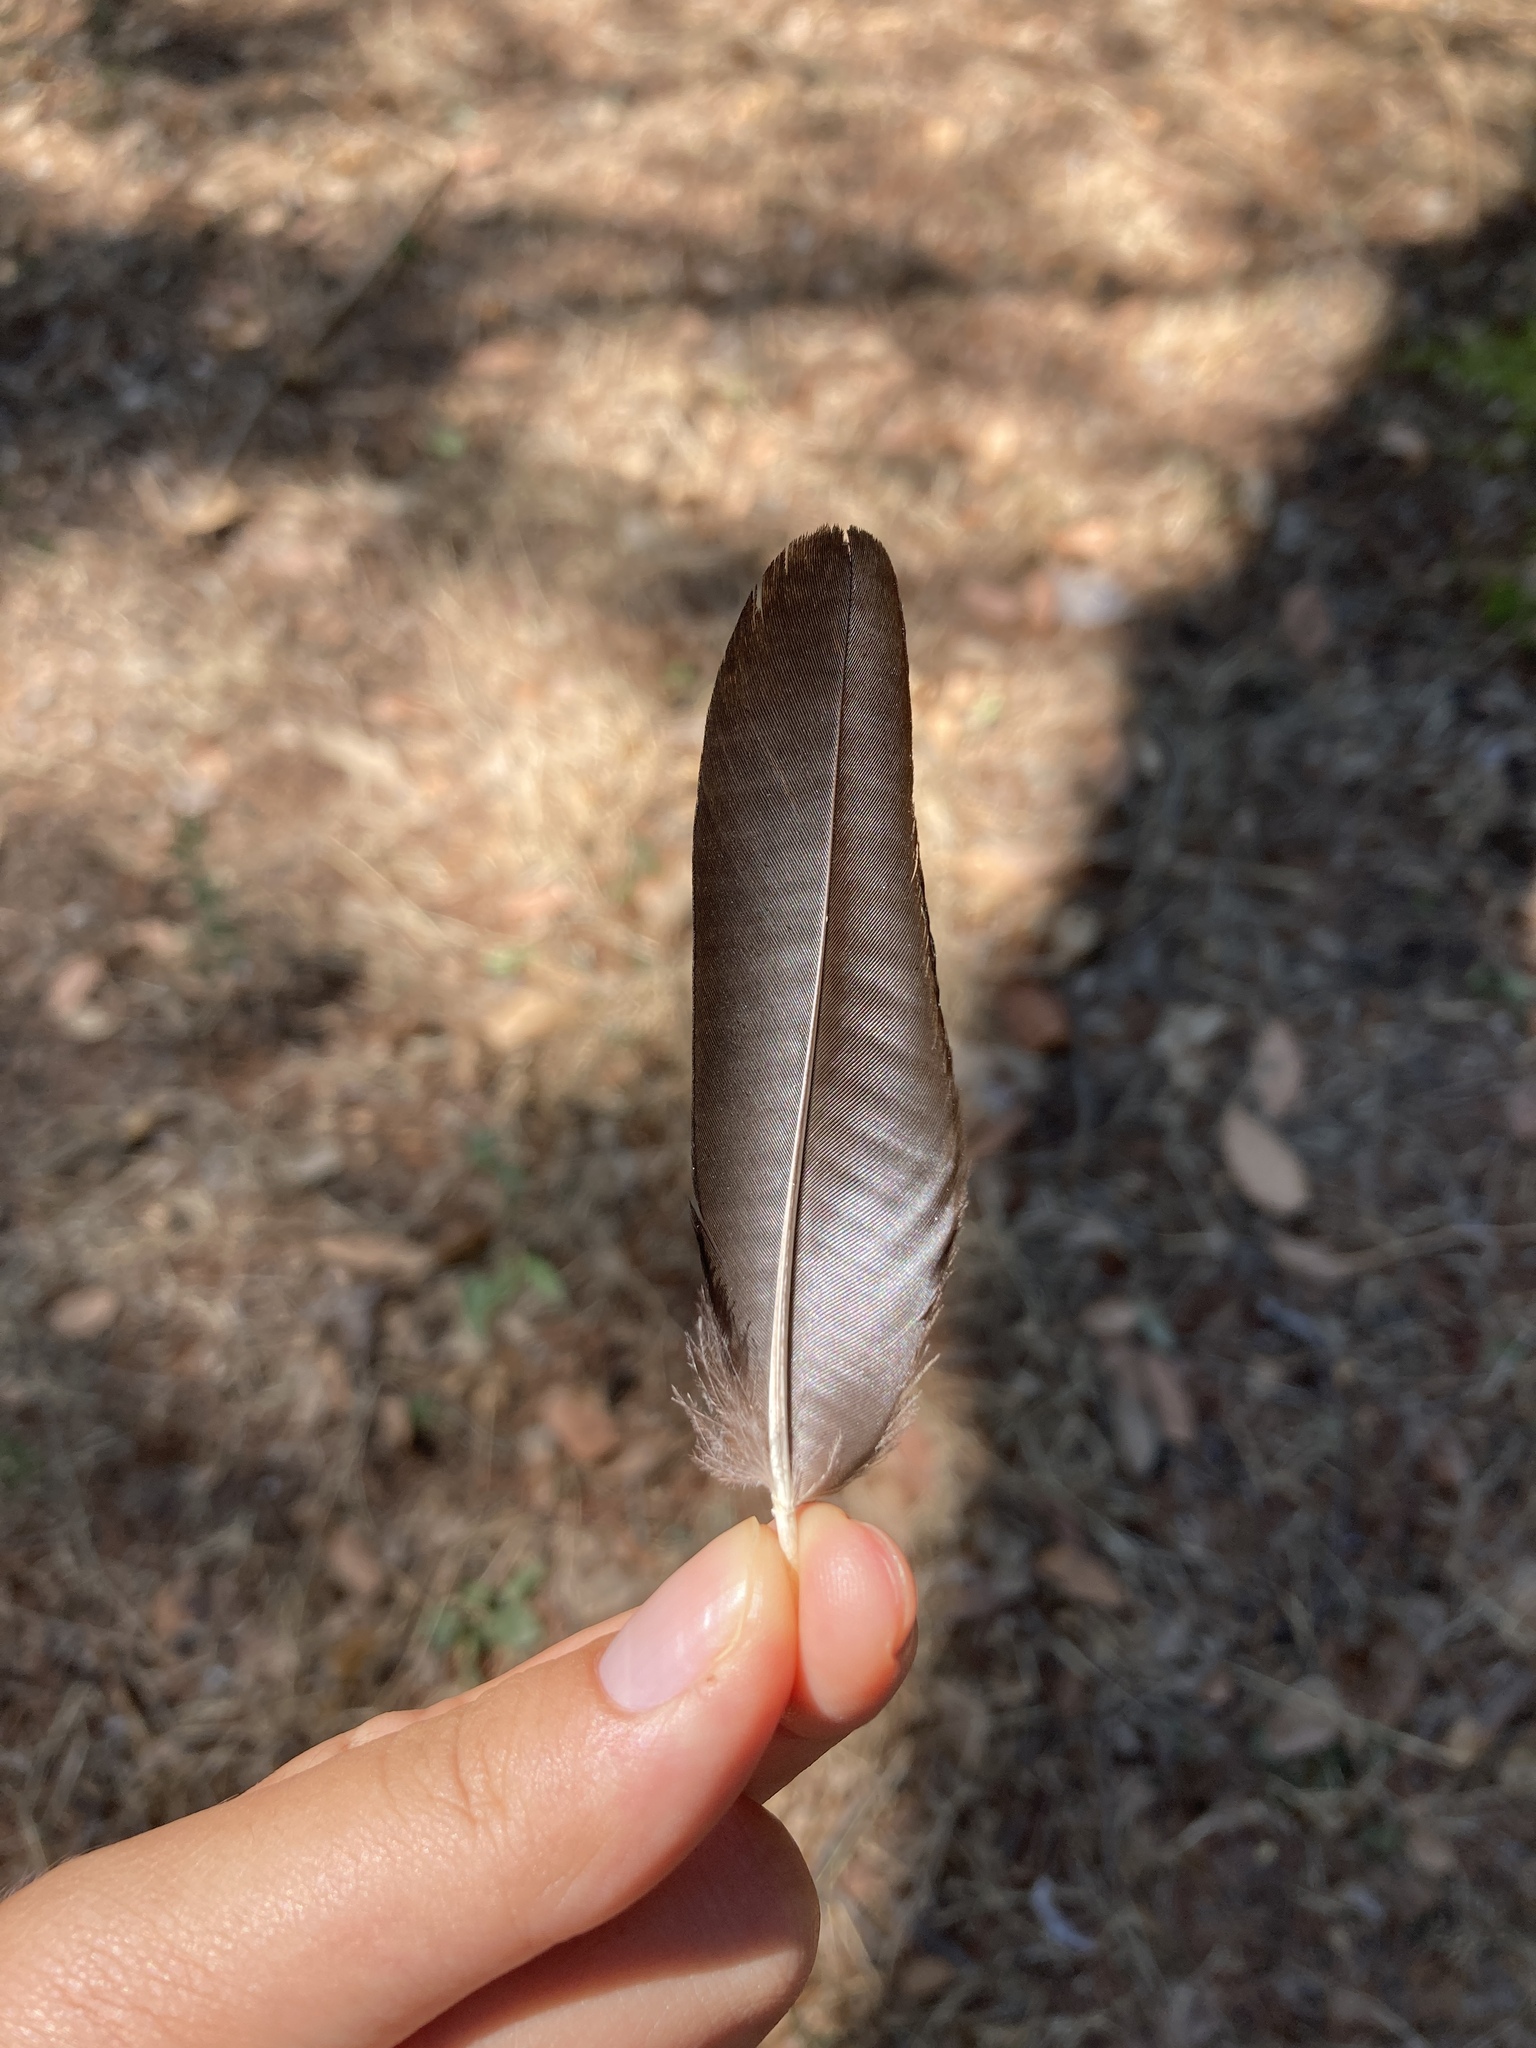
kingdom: Animalia
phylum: Chordata
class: Aves
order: Passeriformes
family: Corvidae
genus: Pica
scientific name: Pica pica
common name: Eurasian magpie
